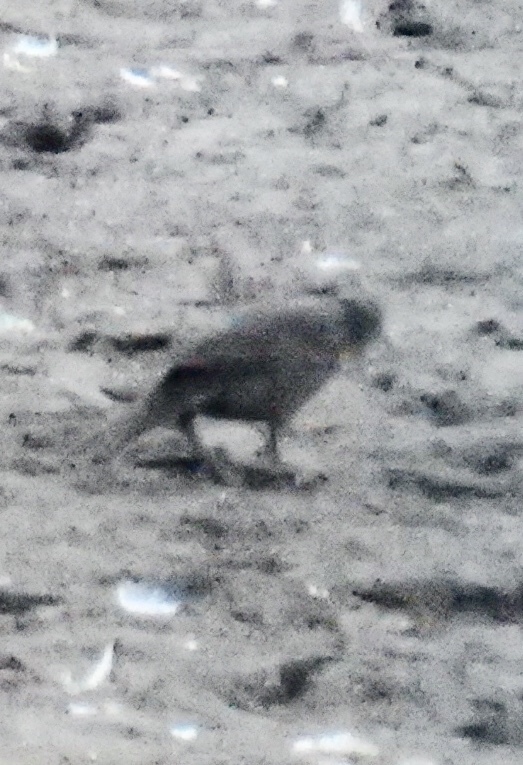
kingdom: Animalia
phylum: Chordata
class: Aves
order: Passeriformes
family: Icteridae
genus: Agelaius
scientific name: Agelaius phoeniceus
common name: Red-winged blackbird
